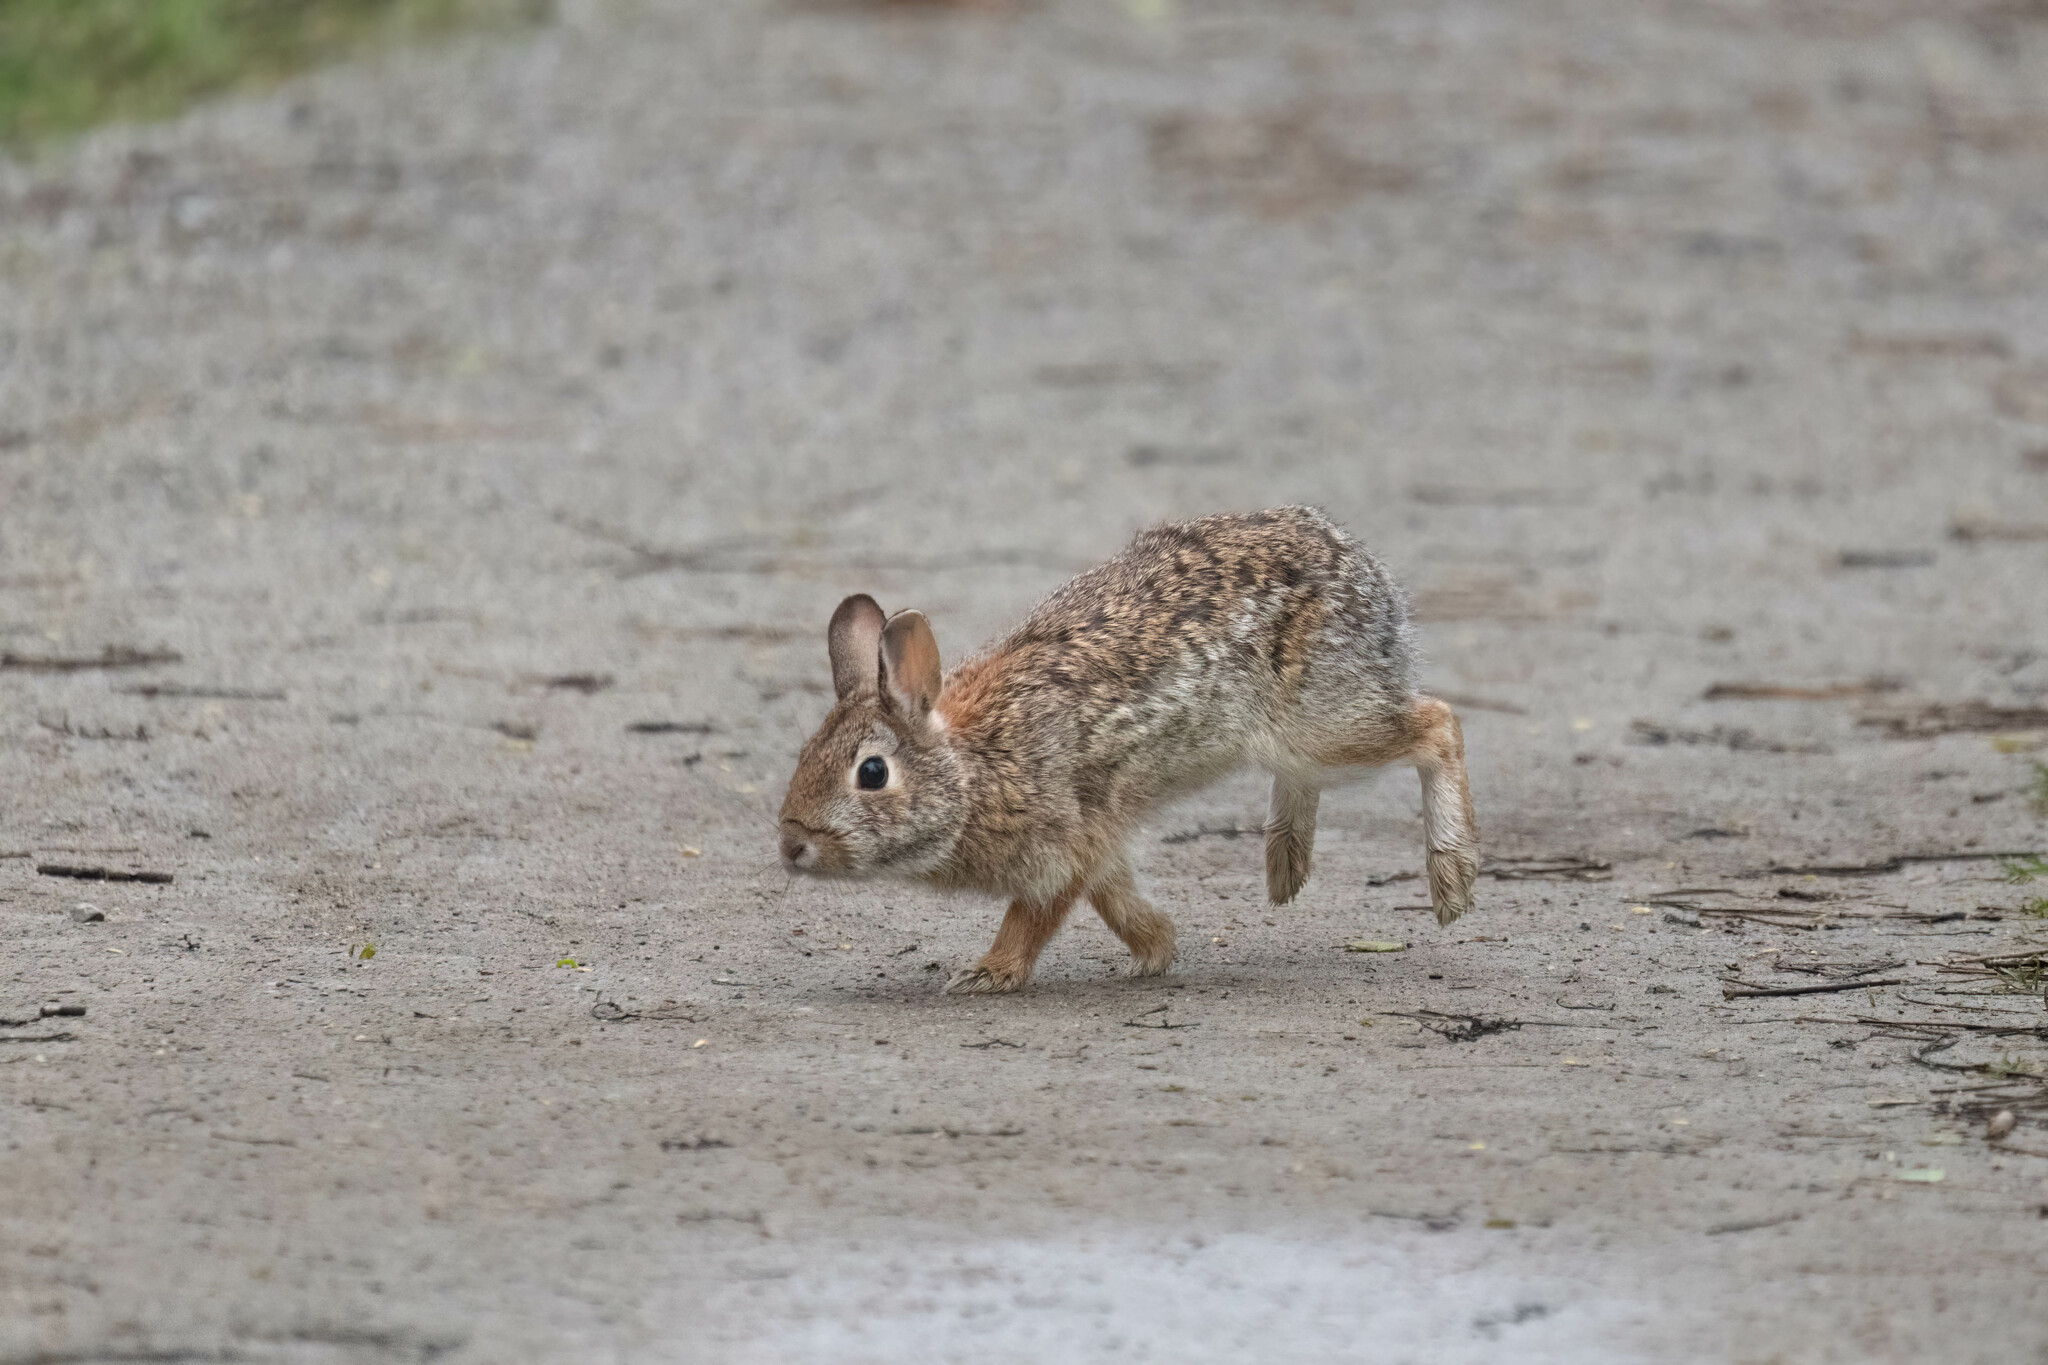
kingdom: Animalia
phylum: Chordata
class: Mammalia
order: Lagomorpha
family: Leporidae
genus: Sylvilagus
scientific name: Sylvilagus floridanus
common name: Eastern cottontail
